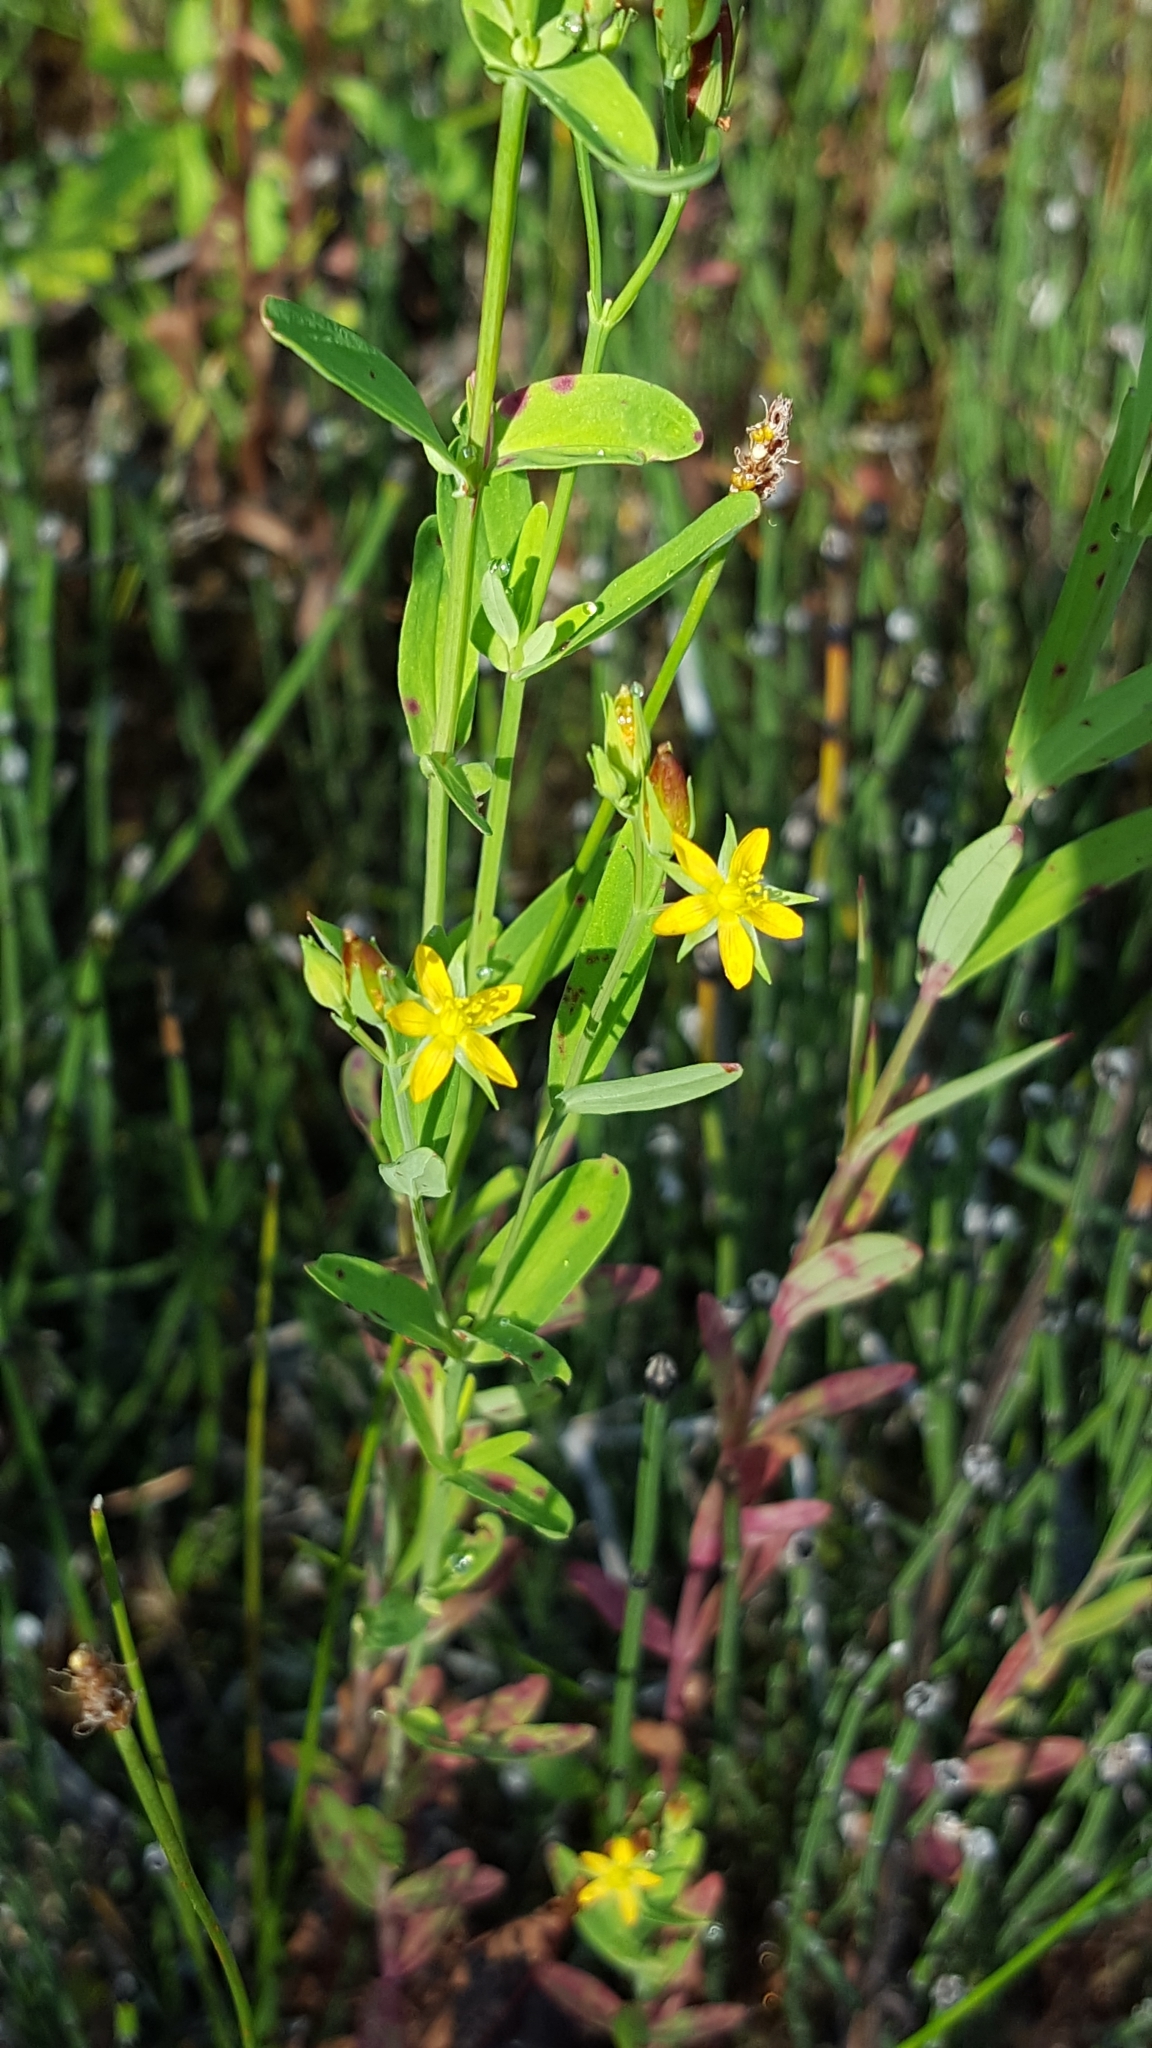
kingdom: Plantae
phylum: Tracheophyta
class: Magnoliopsida
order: Malpighiales
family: Hypericaceae
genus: Hypericum
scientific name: Hypericum majus
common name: Greater canadian st. john's-wort
